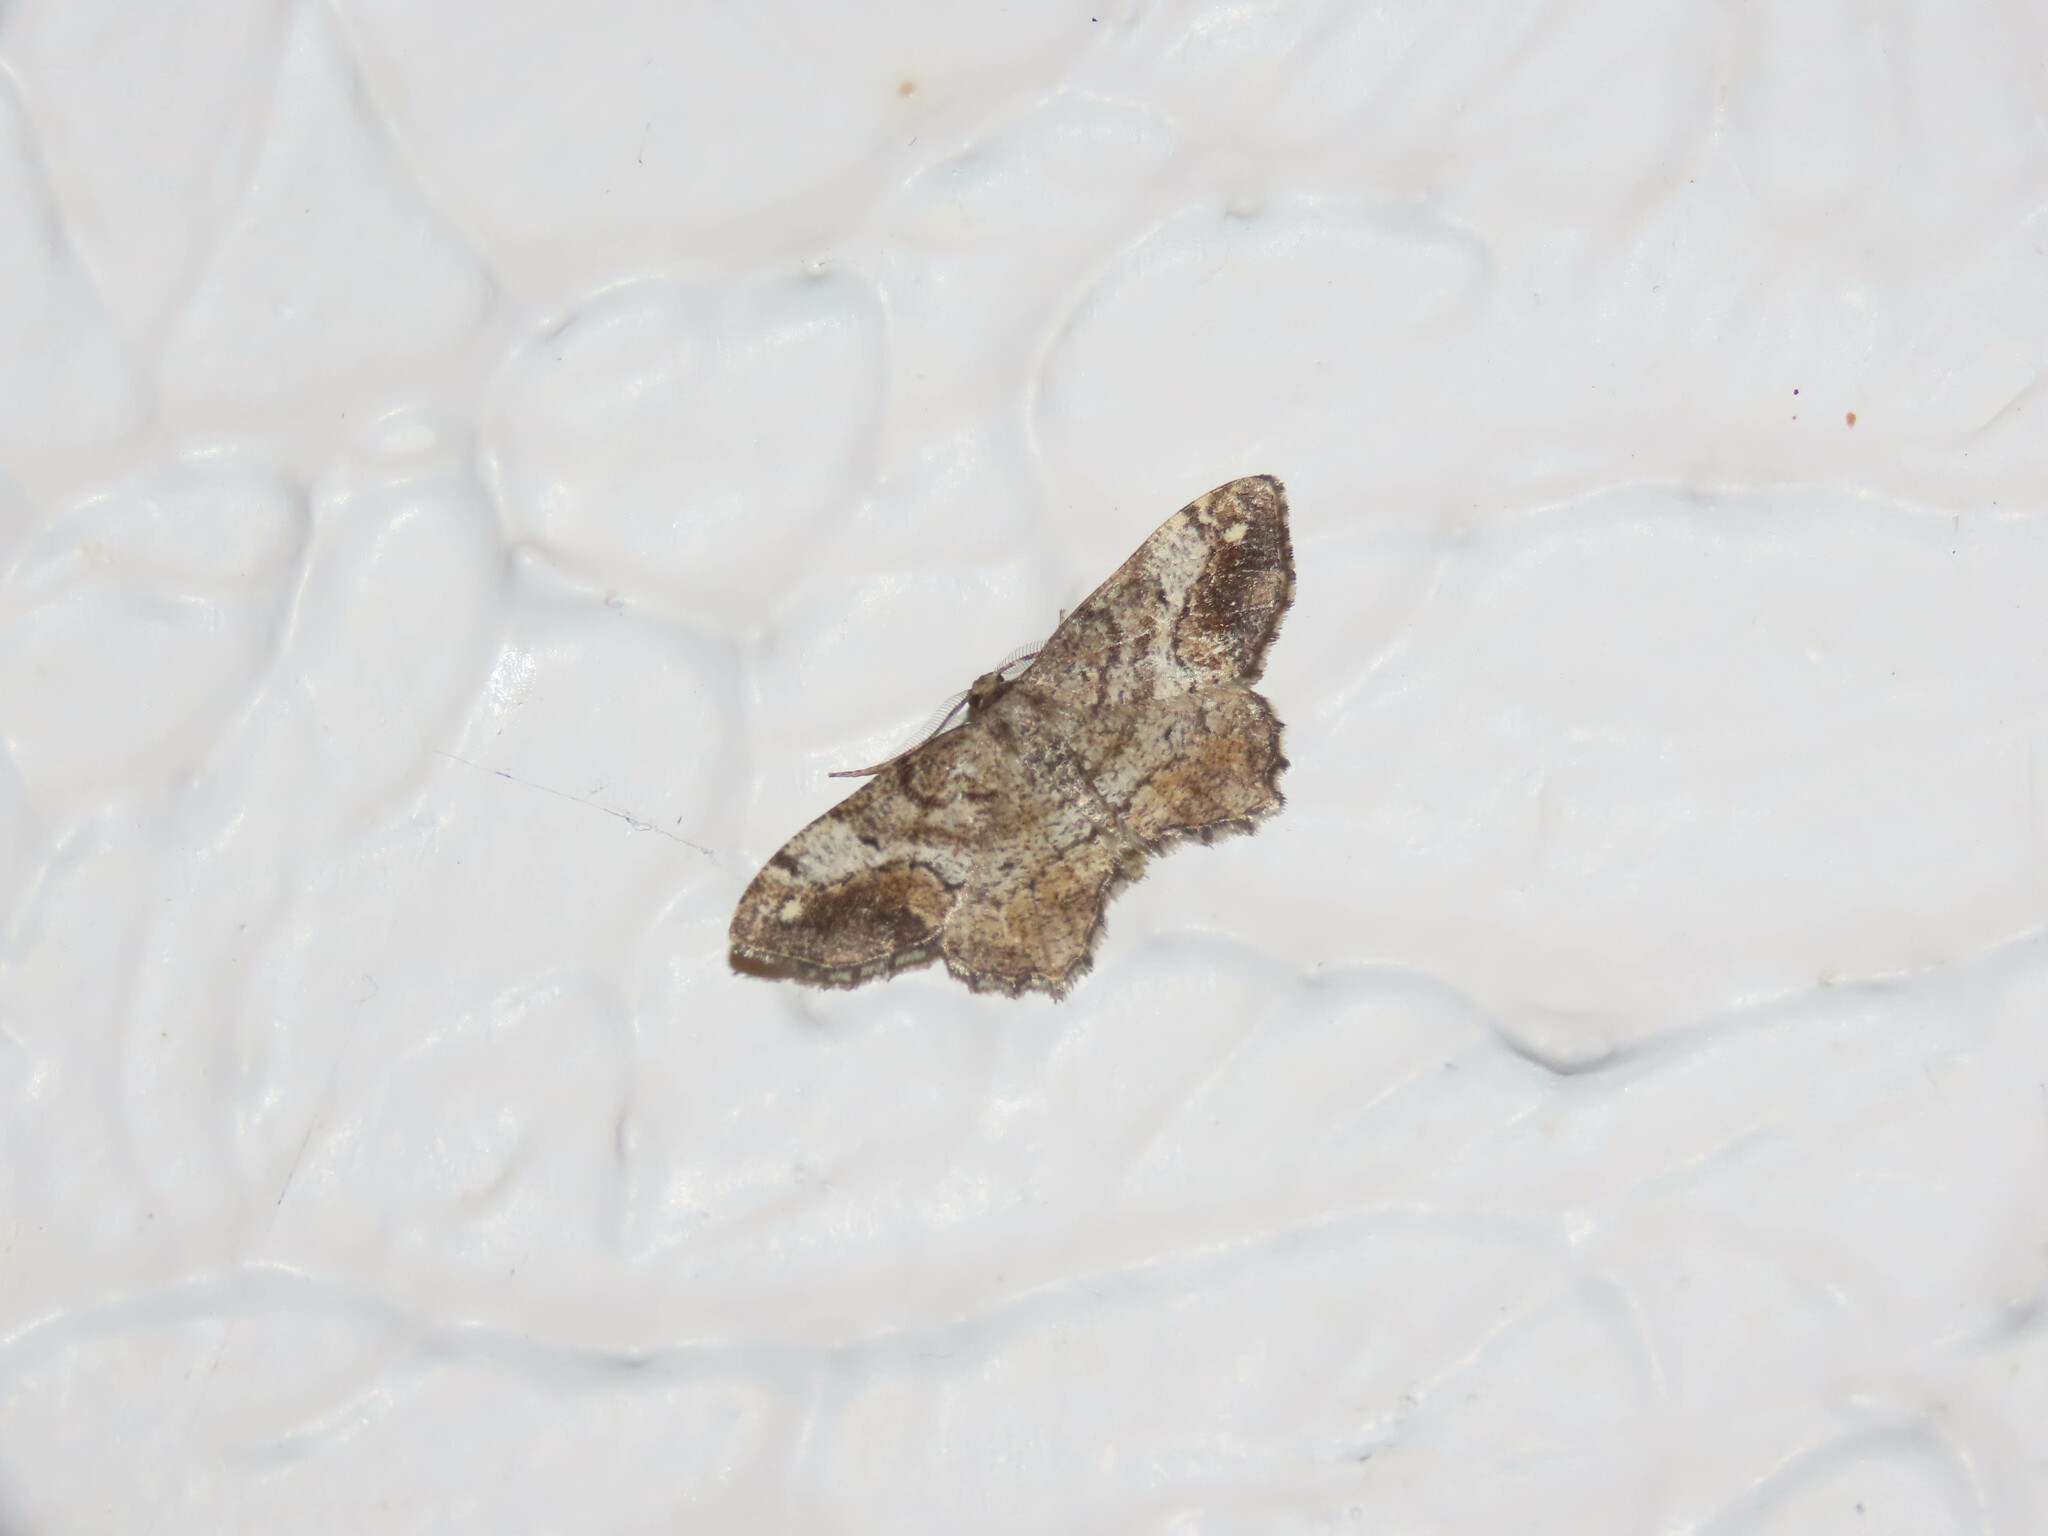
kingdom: Animalia
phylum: Arthropoda
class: Insecta
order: Lepidoptera
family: Geometridae
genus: Hypagyrtis
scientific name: Hypagyrtis unipunctata
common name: One-spotted variant
